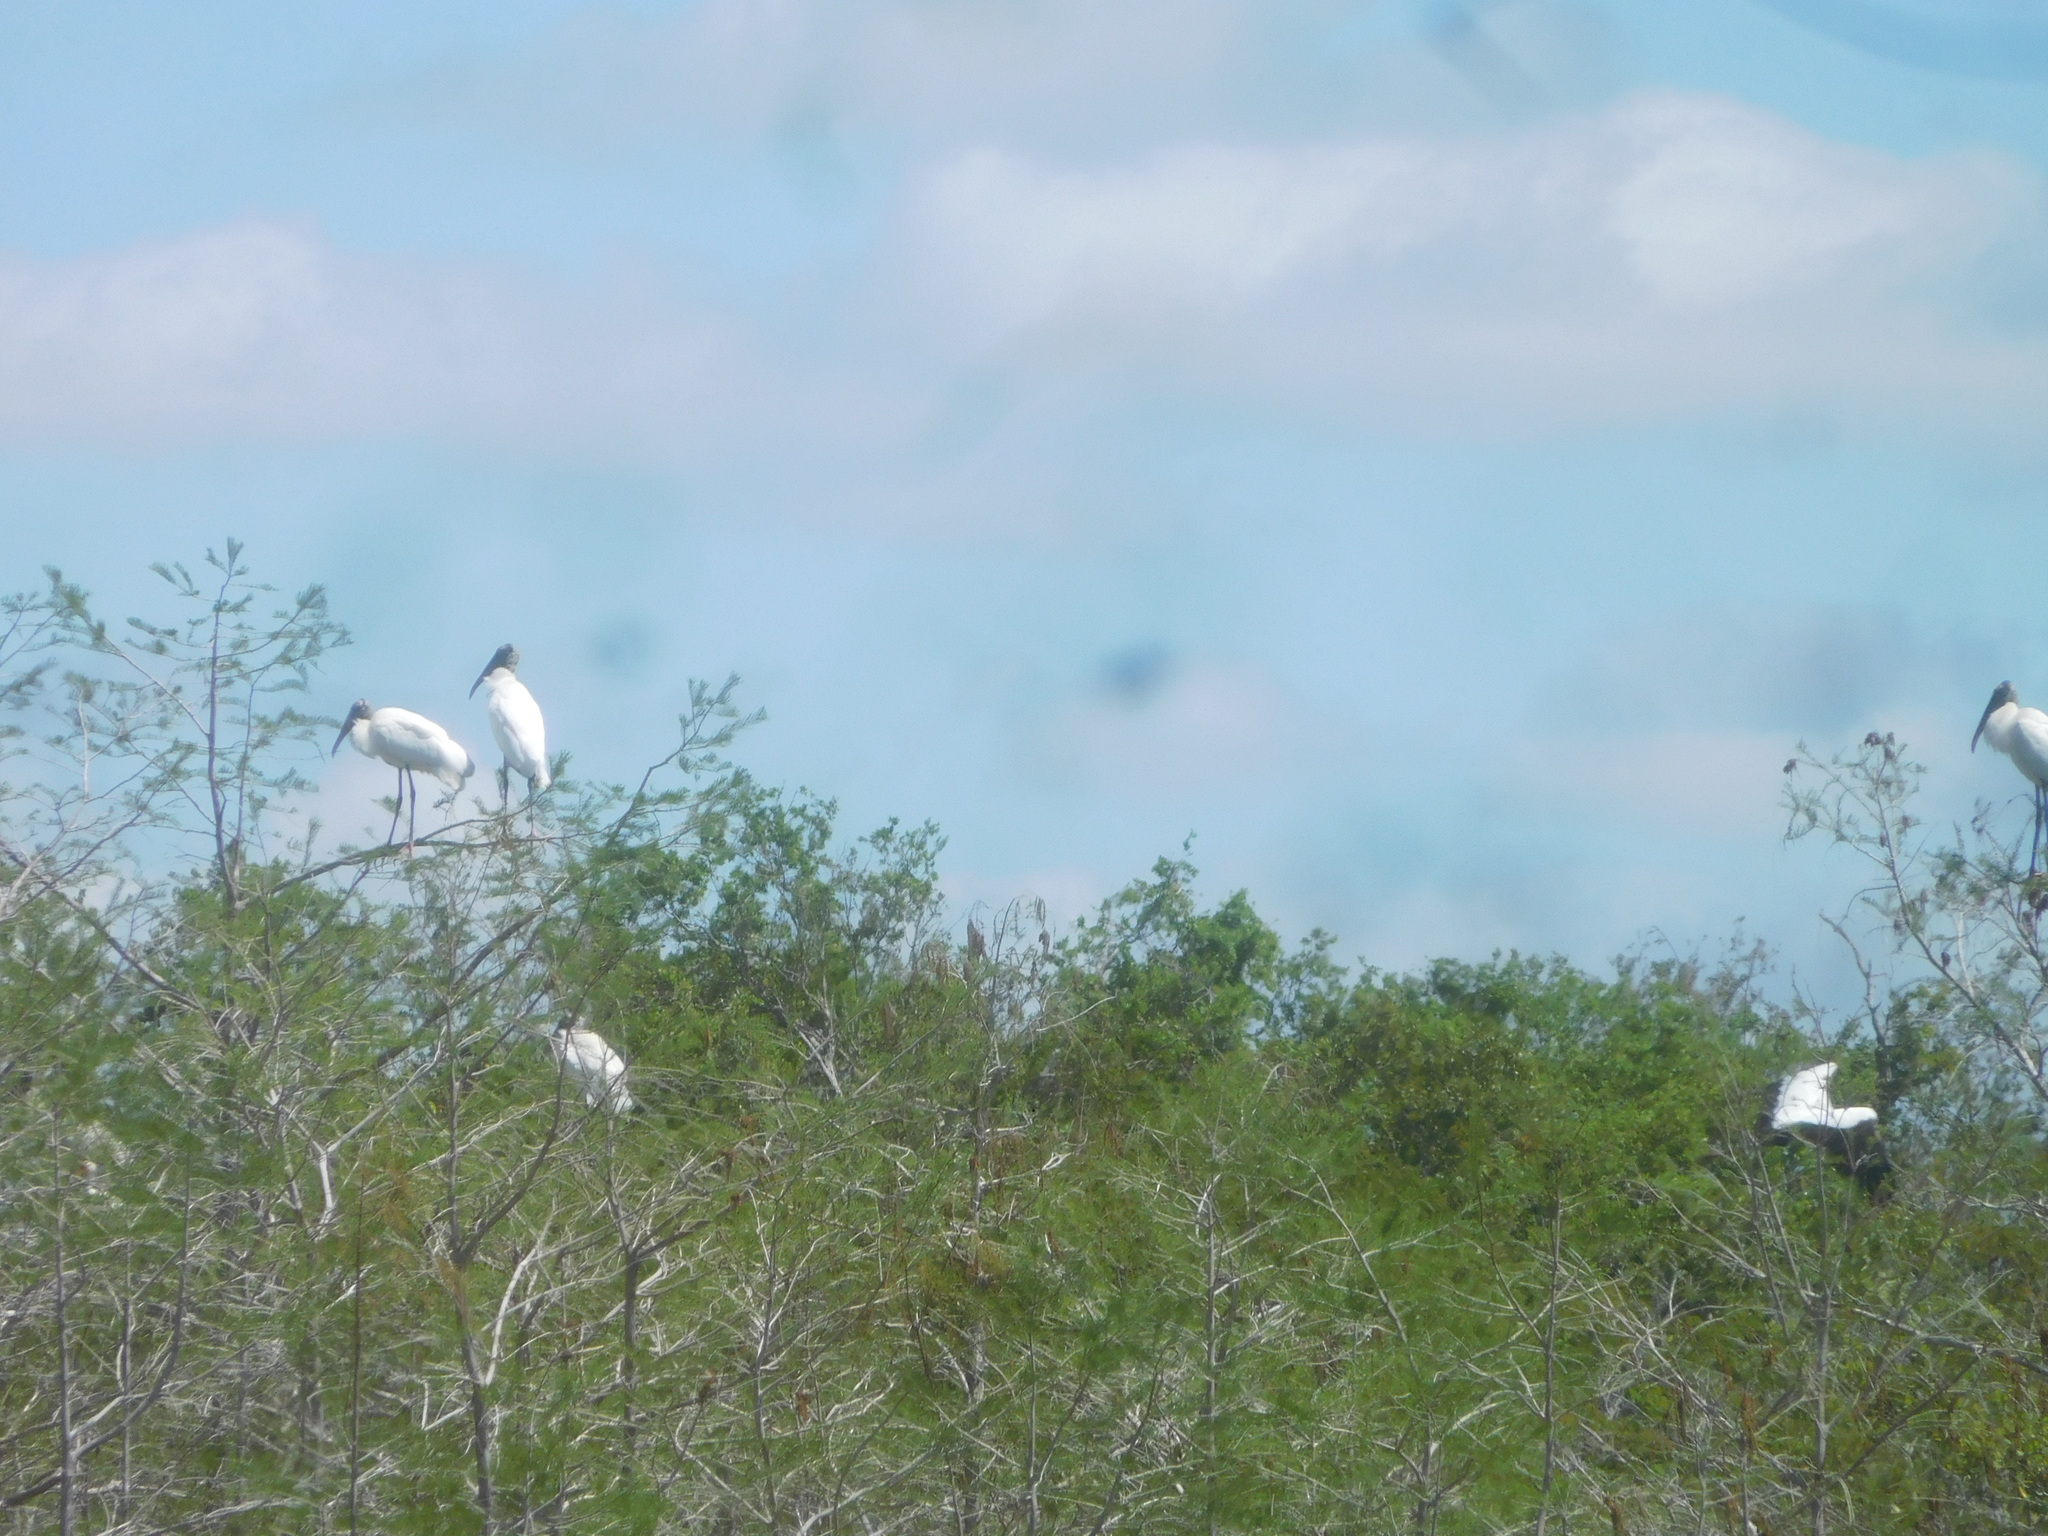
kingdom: Animalia
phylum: Chordata
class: Aves
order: Ciconiiformes
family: Ciconiidae
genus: Mycteria
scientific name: Mycteria americana
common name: Wood stork
